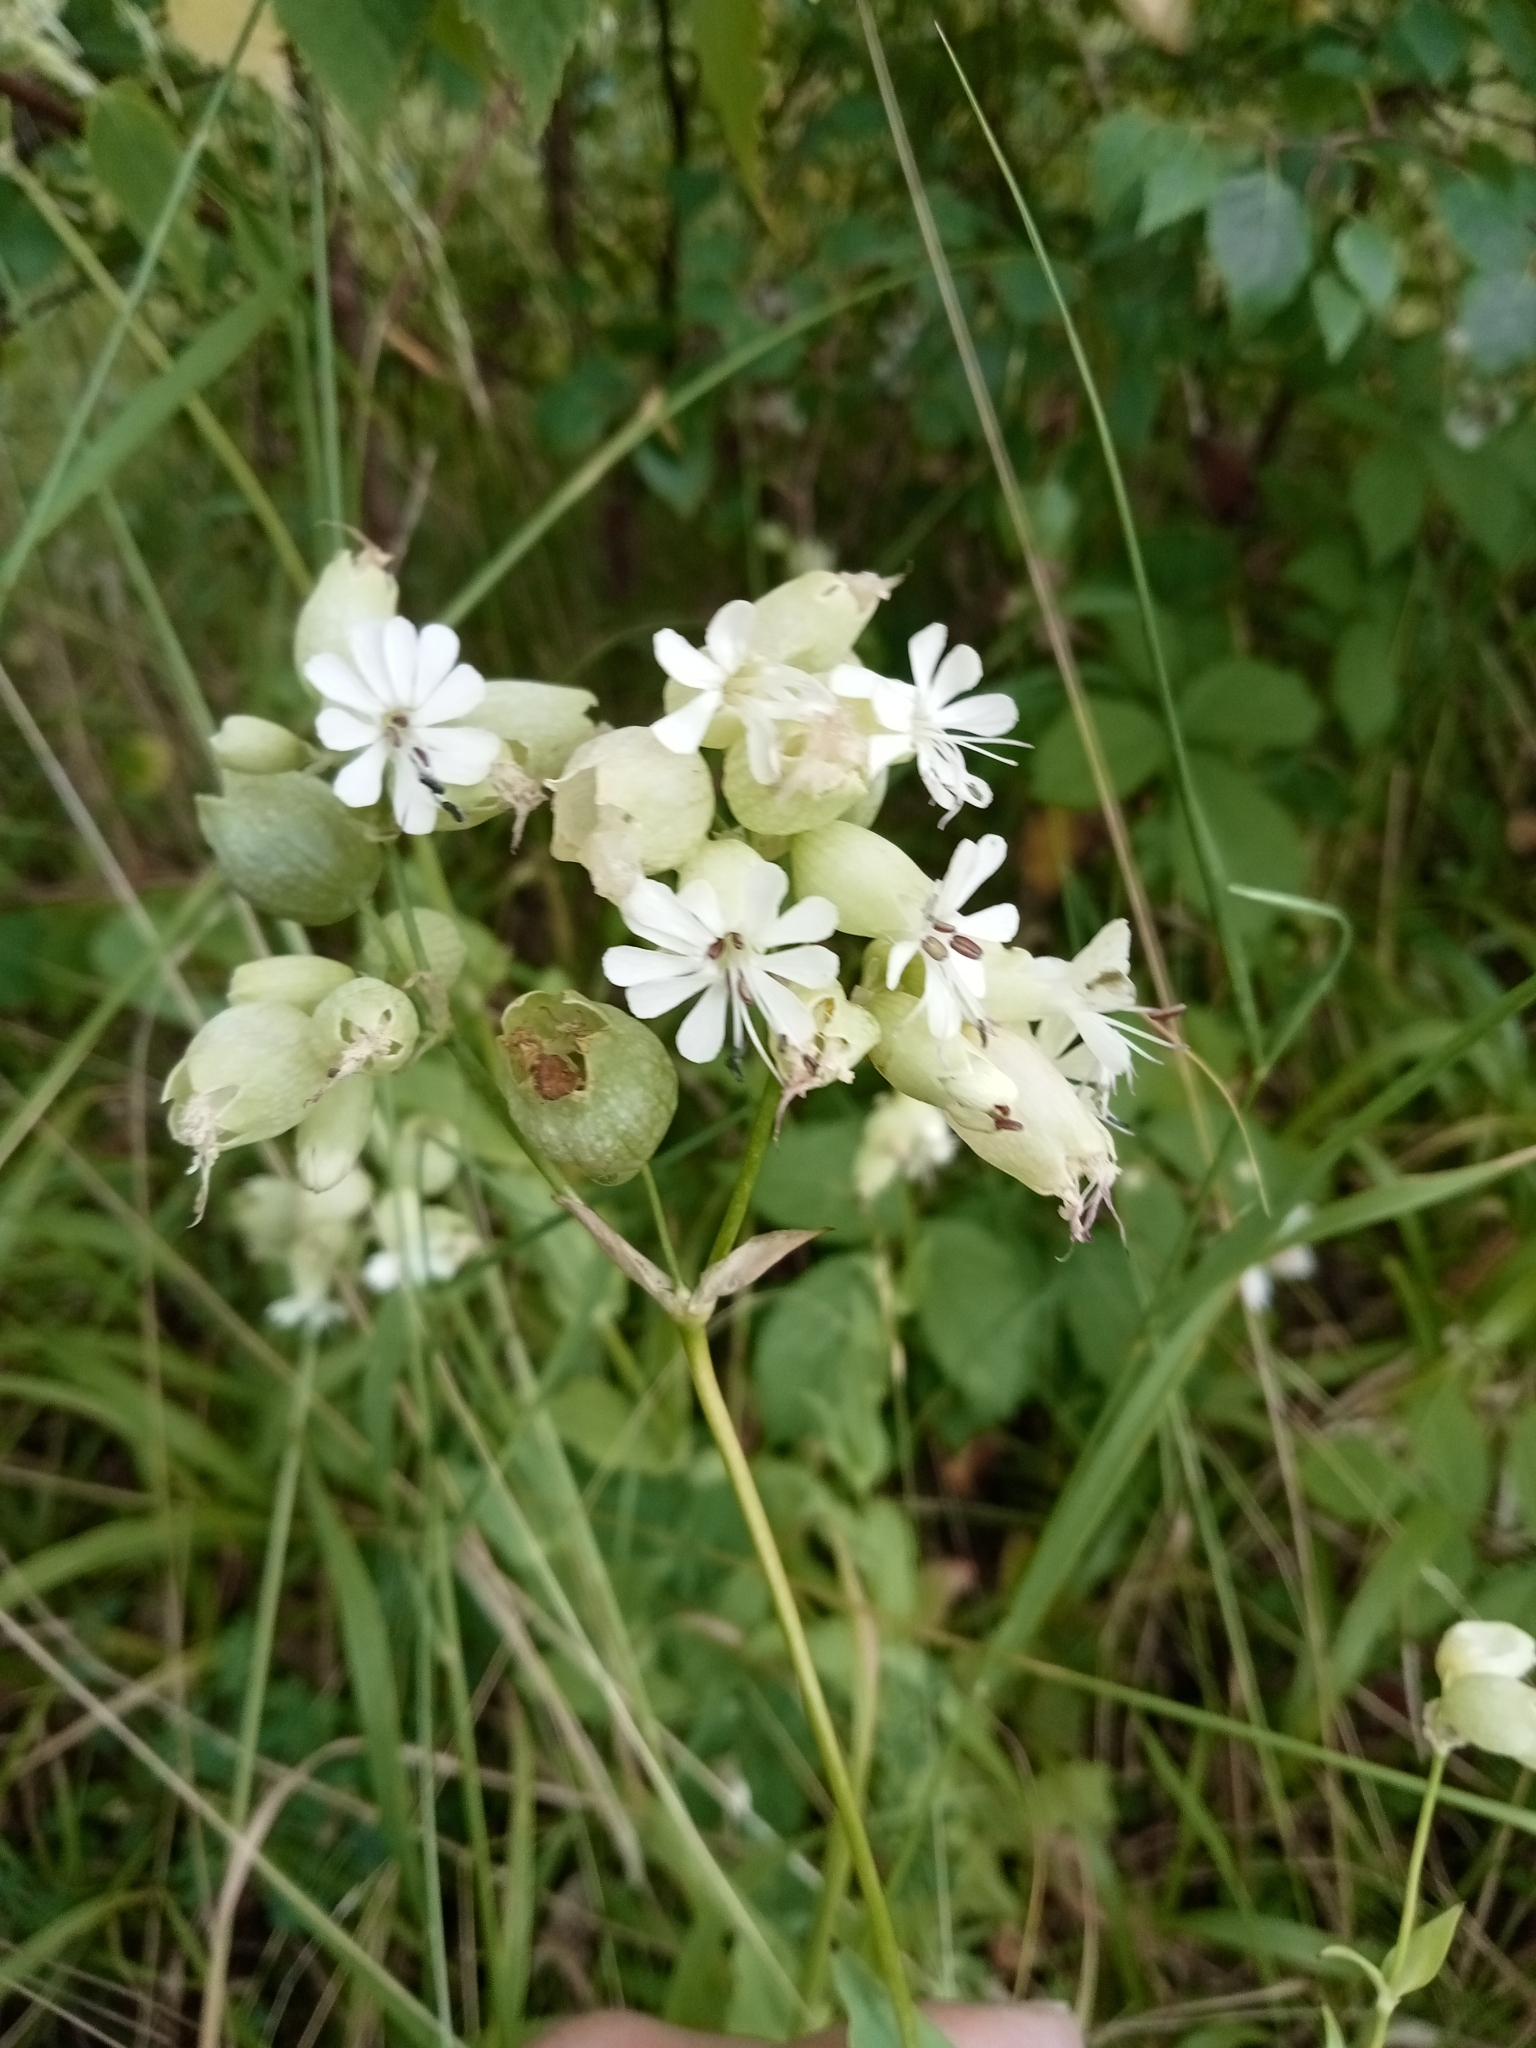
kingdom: Plantae
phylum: Tracheophyta
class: Magnoliopsida
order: Caryophyllales
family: Caryophyllaceae
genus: Silene
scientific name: Silene vulgaris
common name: Bladder campion
